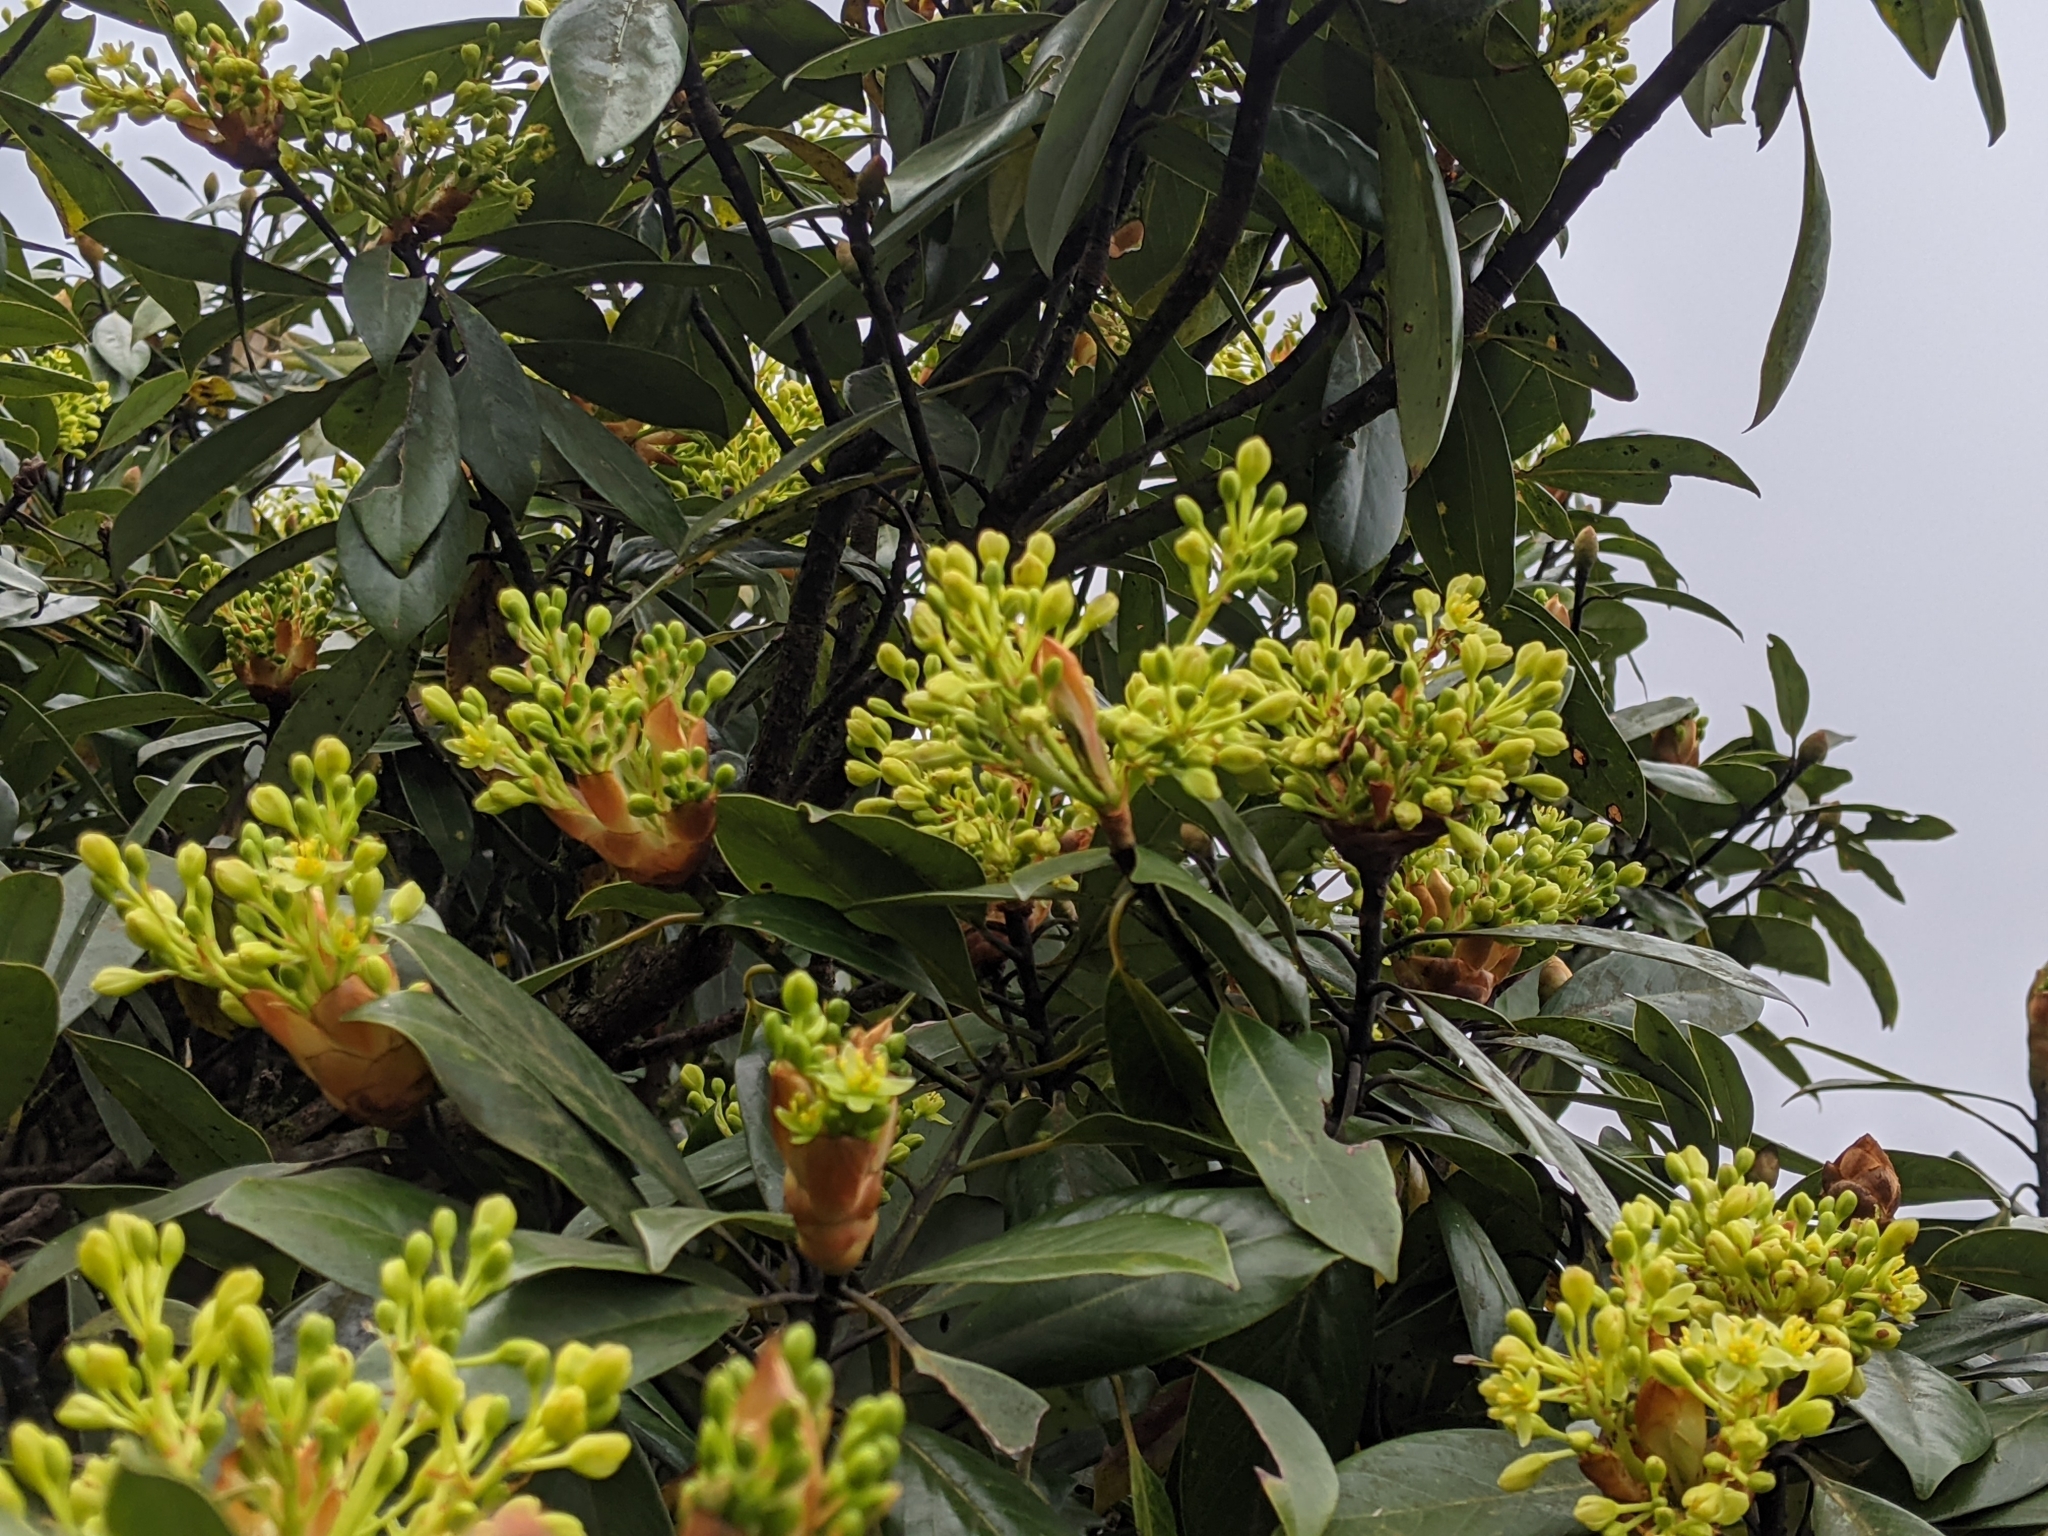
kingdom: Plantae
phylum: Tracheophyta
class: Magnoliopsida
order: Laurales
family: Lauraceae
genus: Machilus
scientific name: Machilus thunbergii
